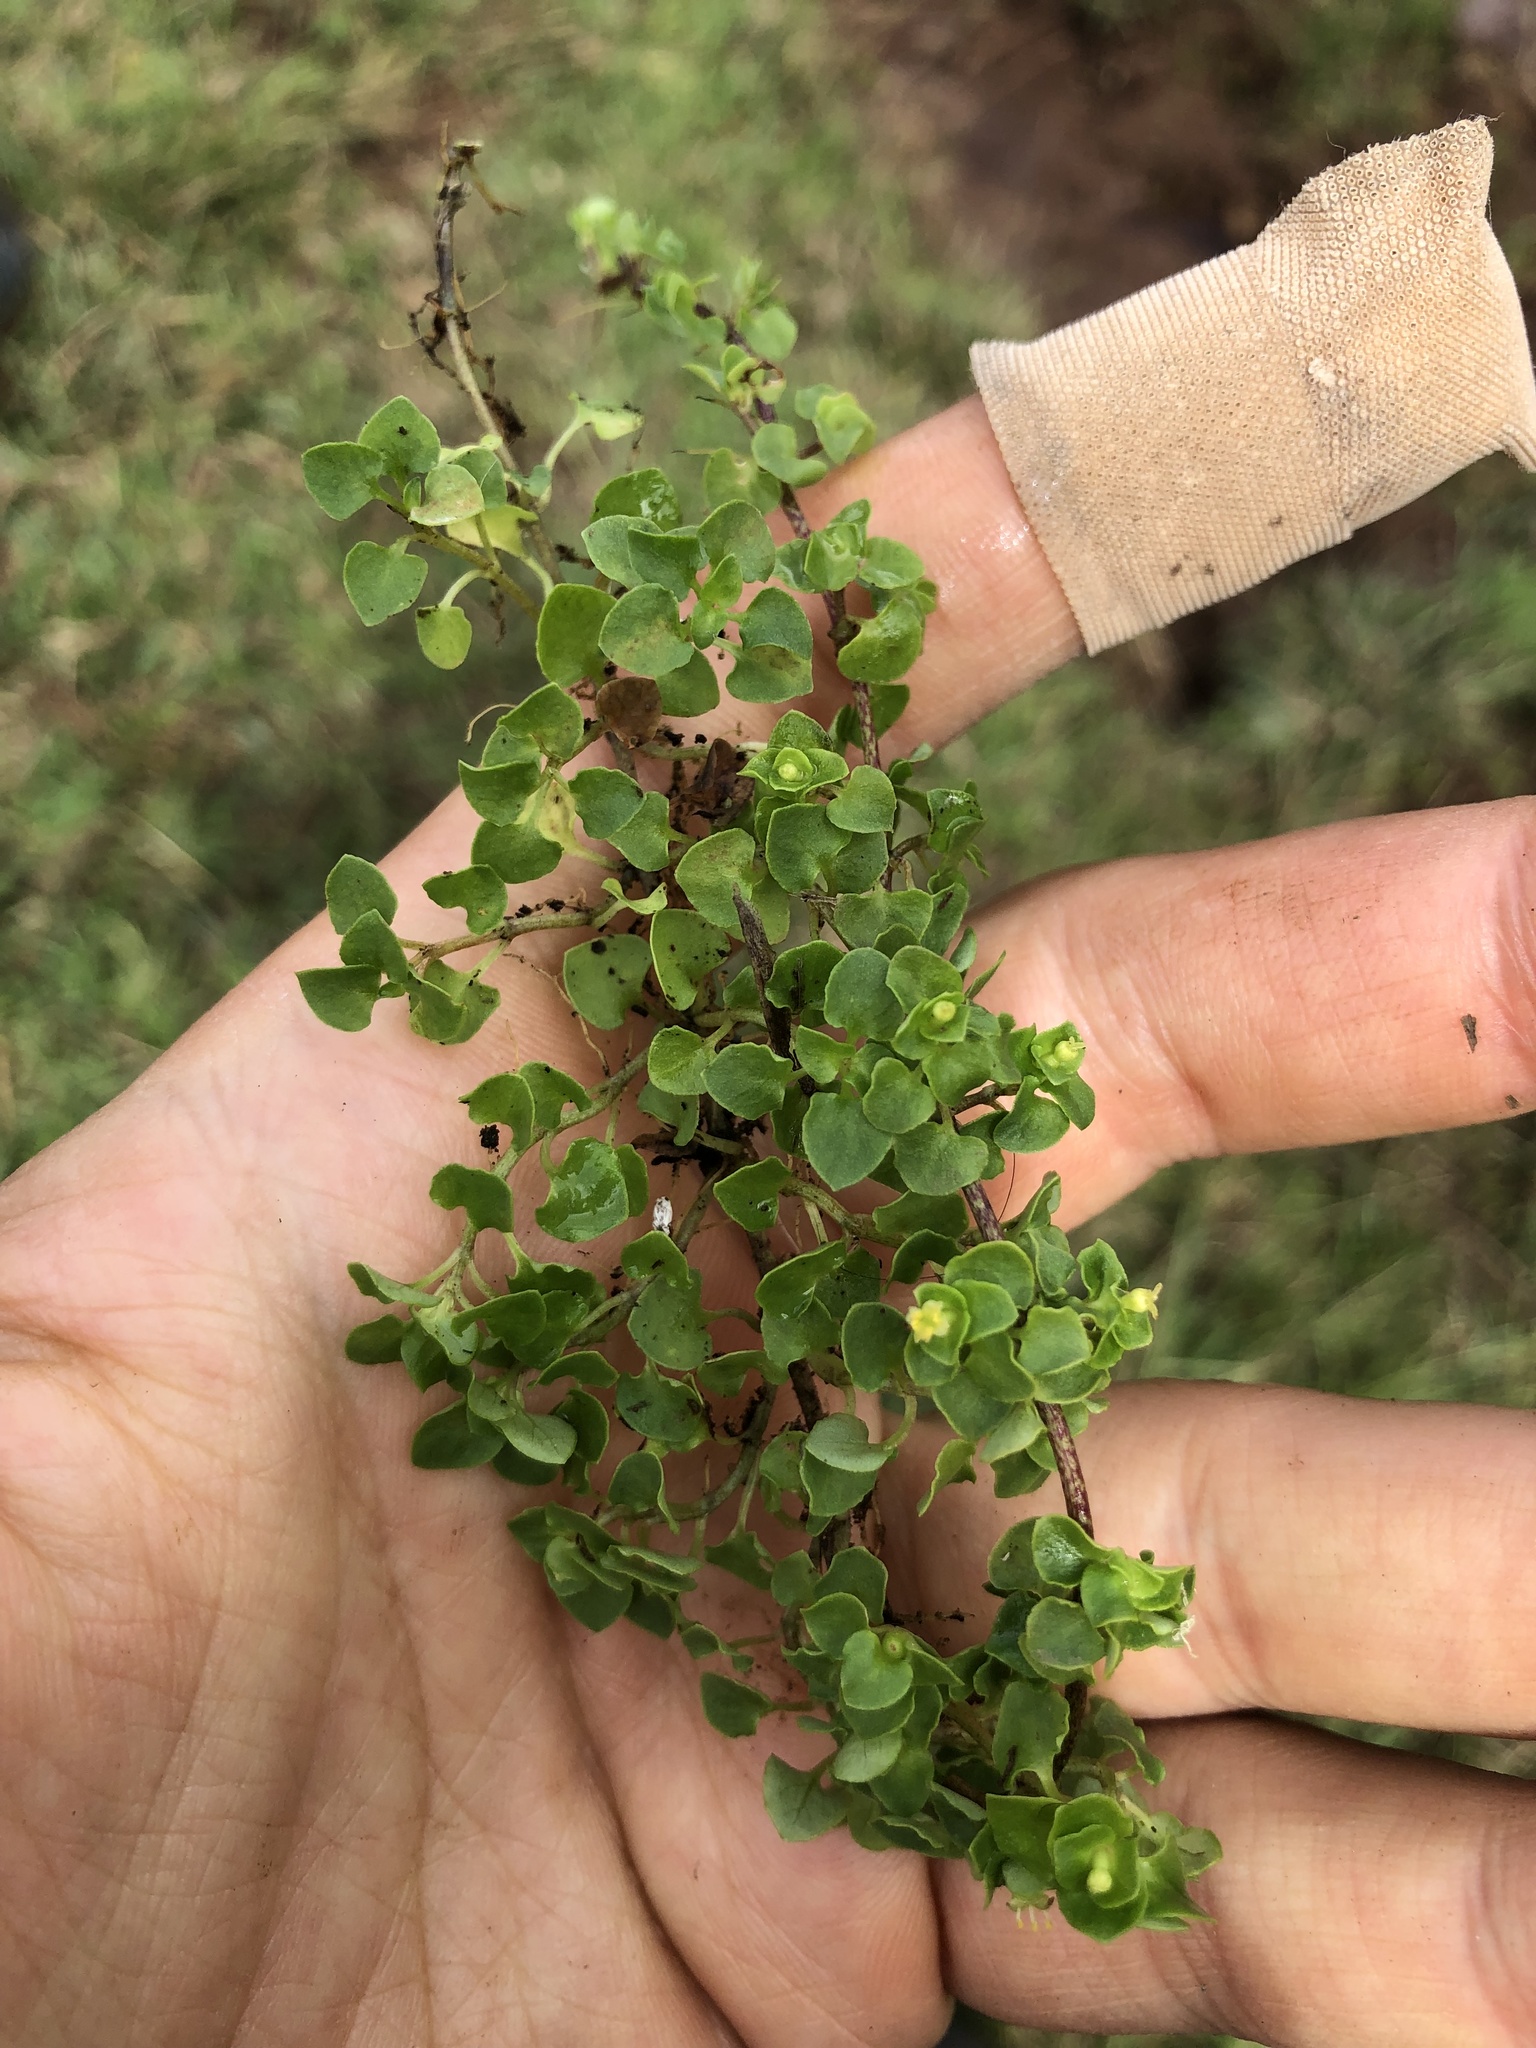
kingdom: Plantae
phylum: Tracheophyta
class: Magnoliopsida
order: Gentianales
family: Rubiaceae
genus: Nertera
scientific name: Nertera granadensis
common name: Beadplant
